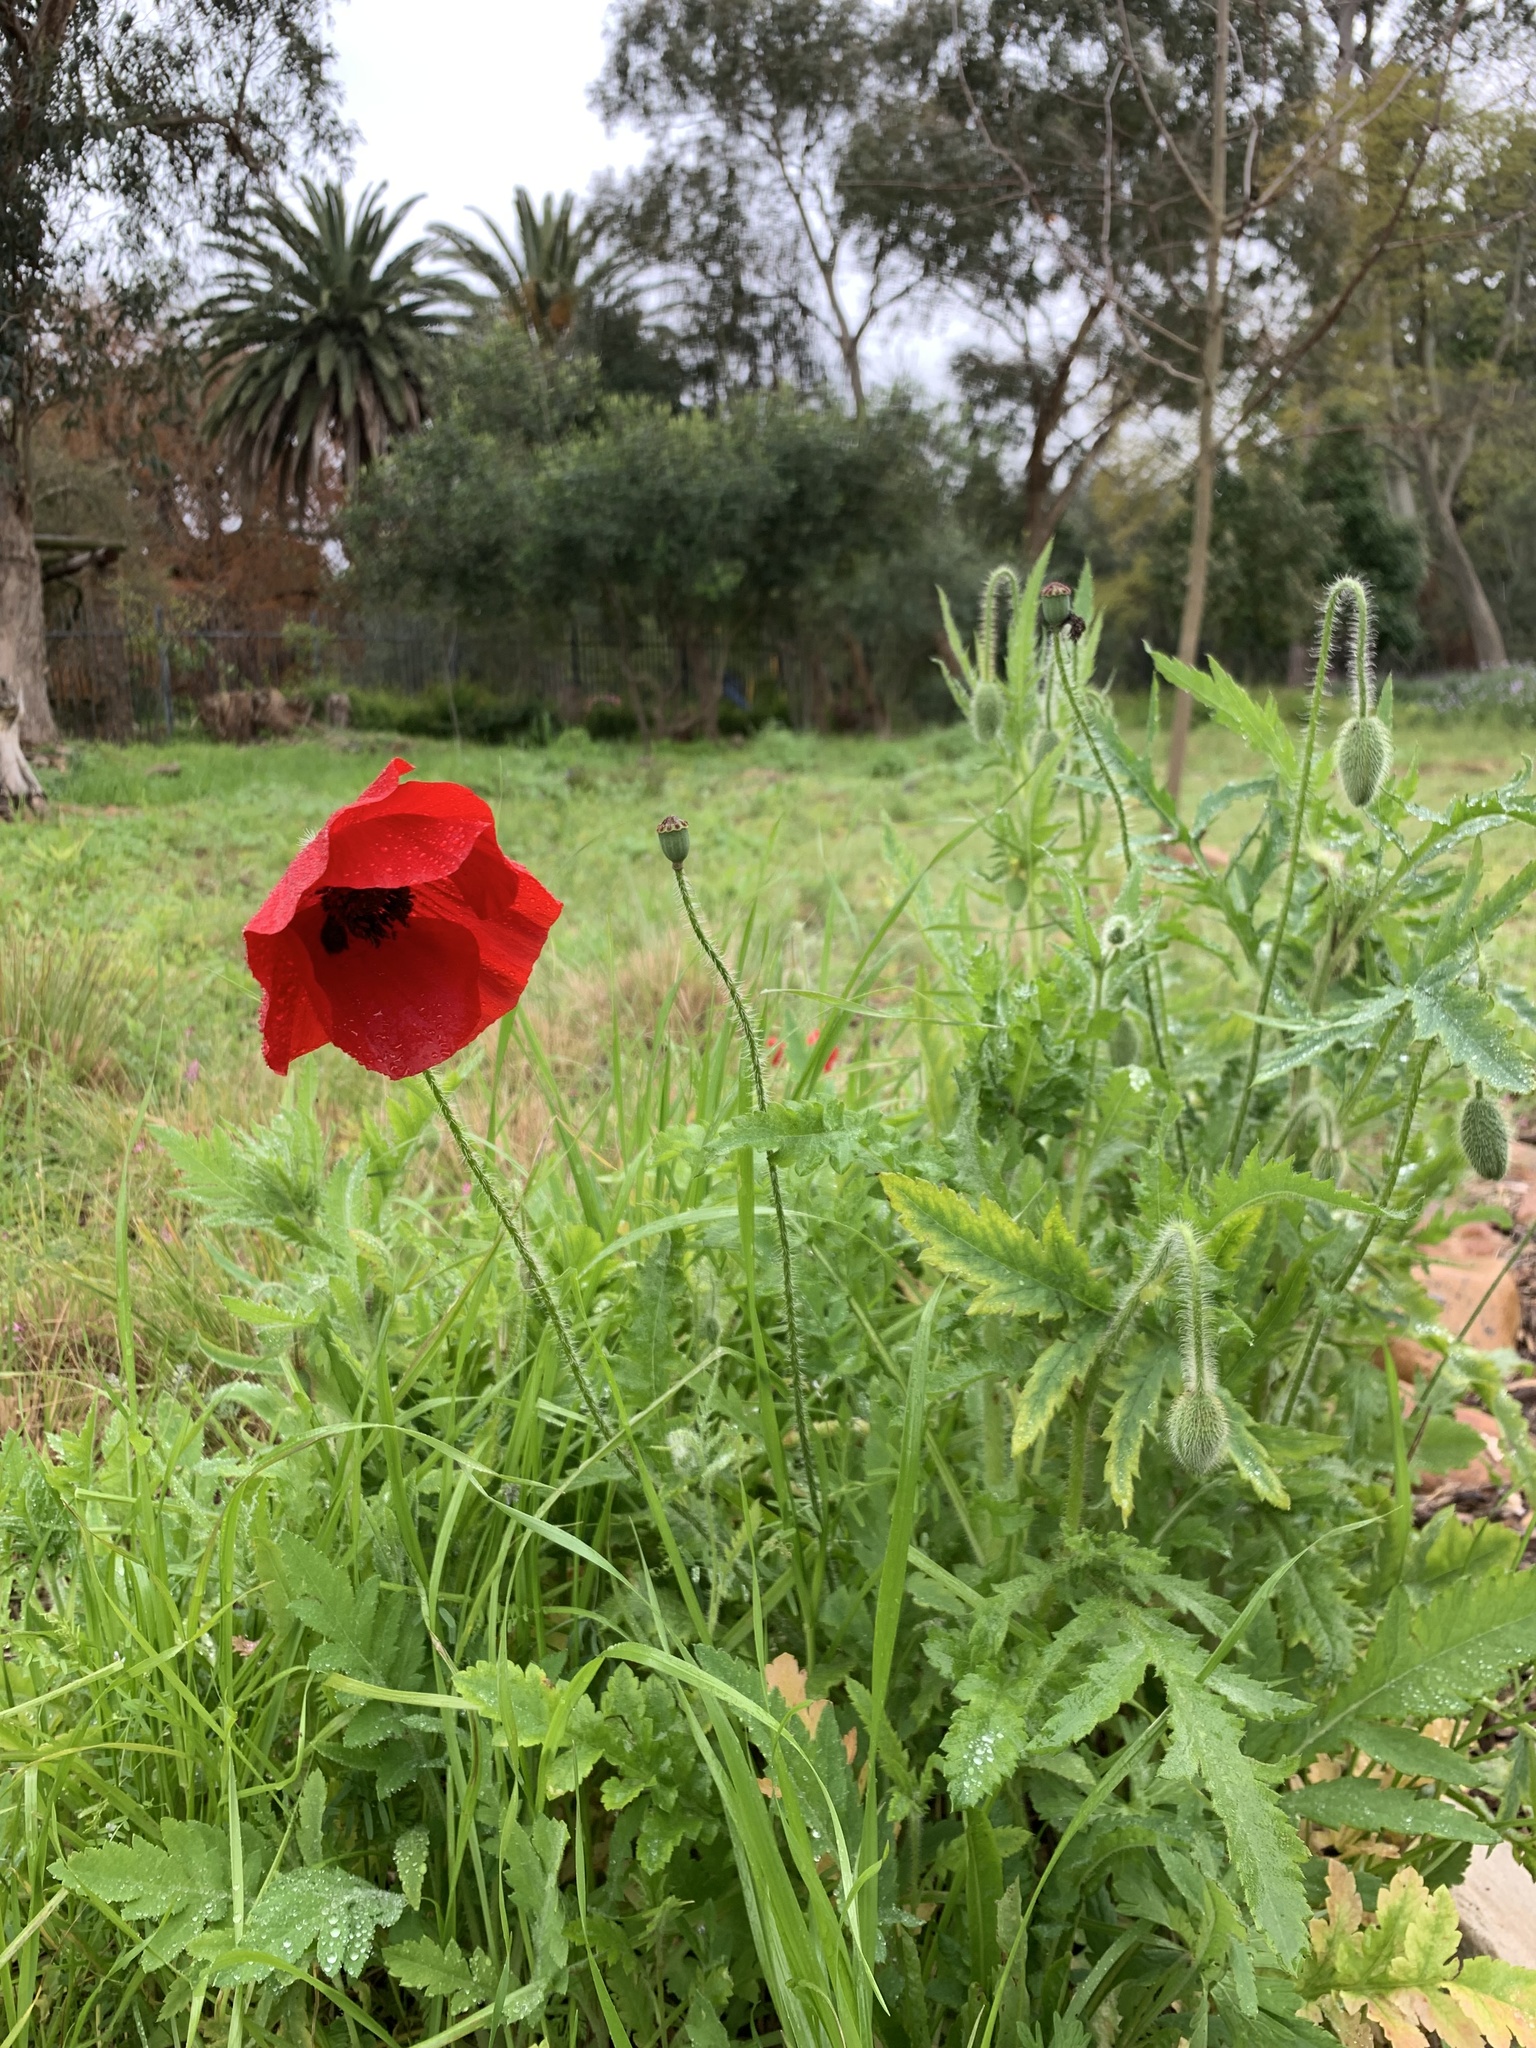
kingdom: Plantae
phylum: Tracheophyta
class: Magnoliopsida
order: Ranunculales
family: Papaveraceae
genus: Papaver
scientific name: Papaver rhoeas
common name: Corn poppy
